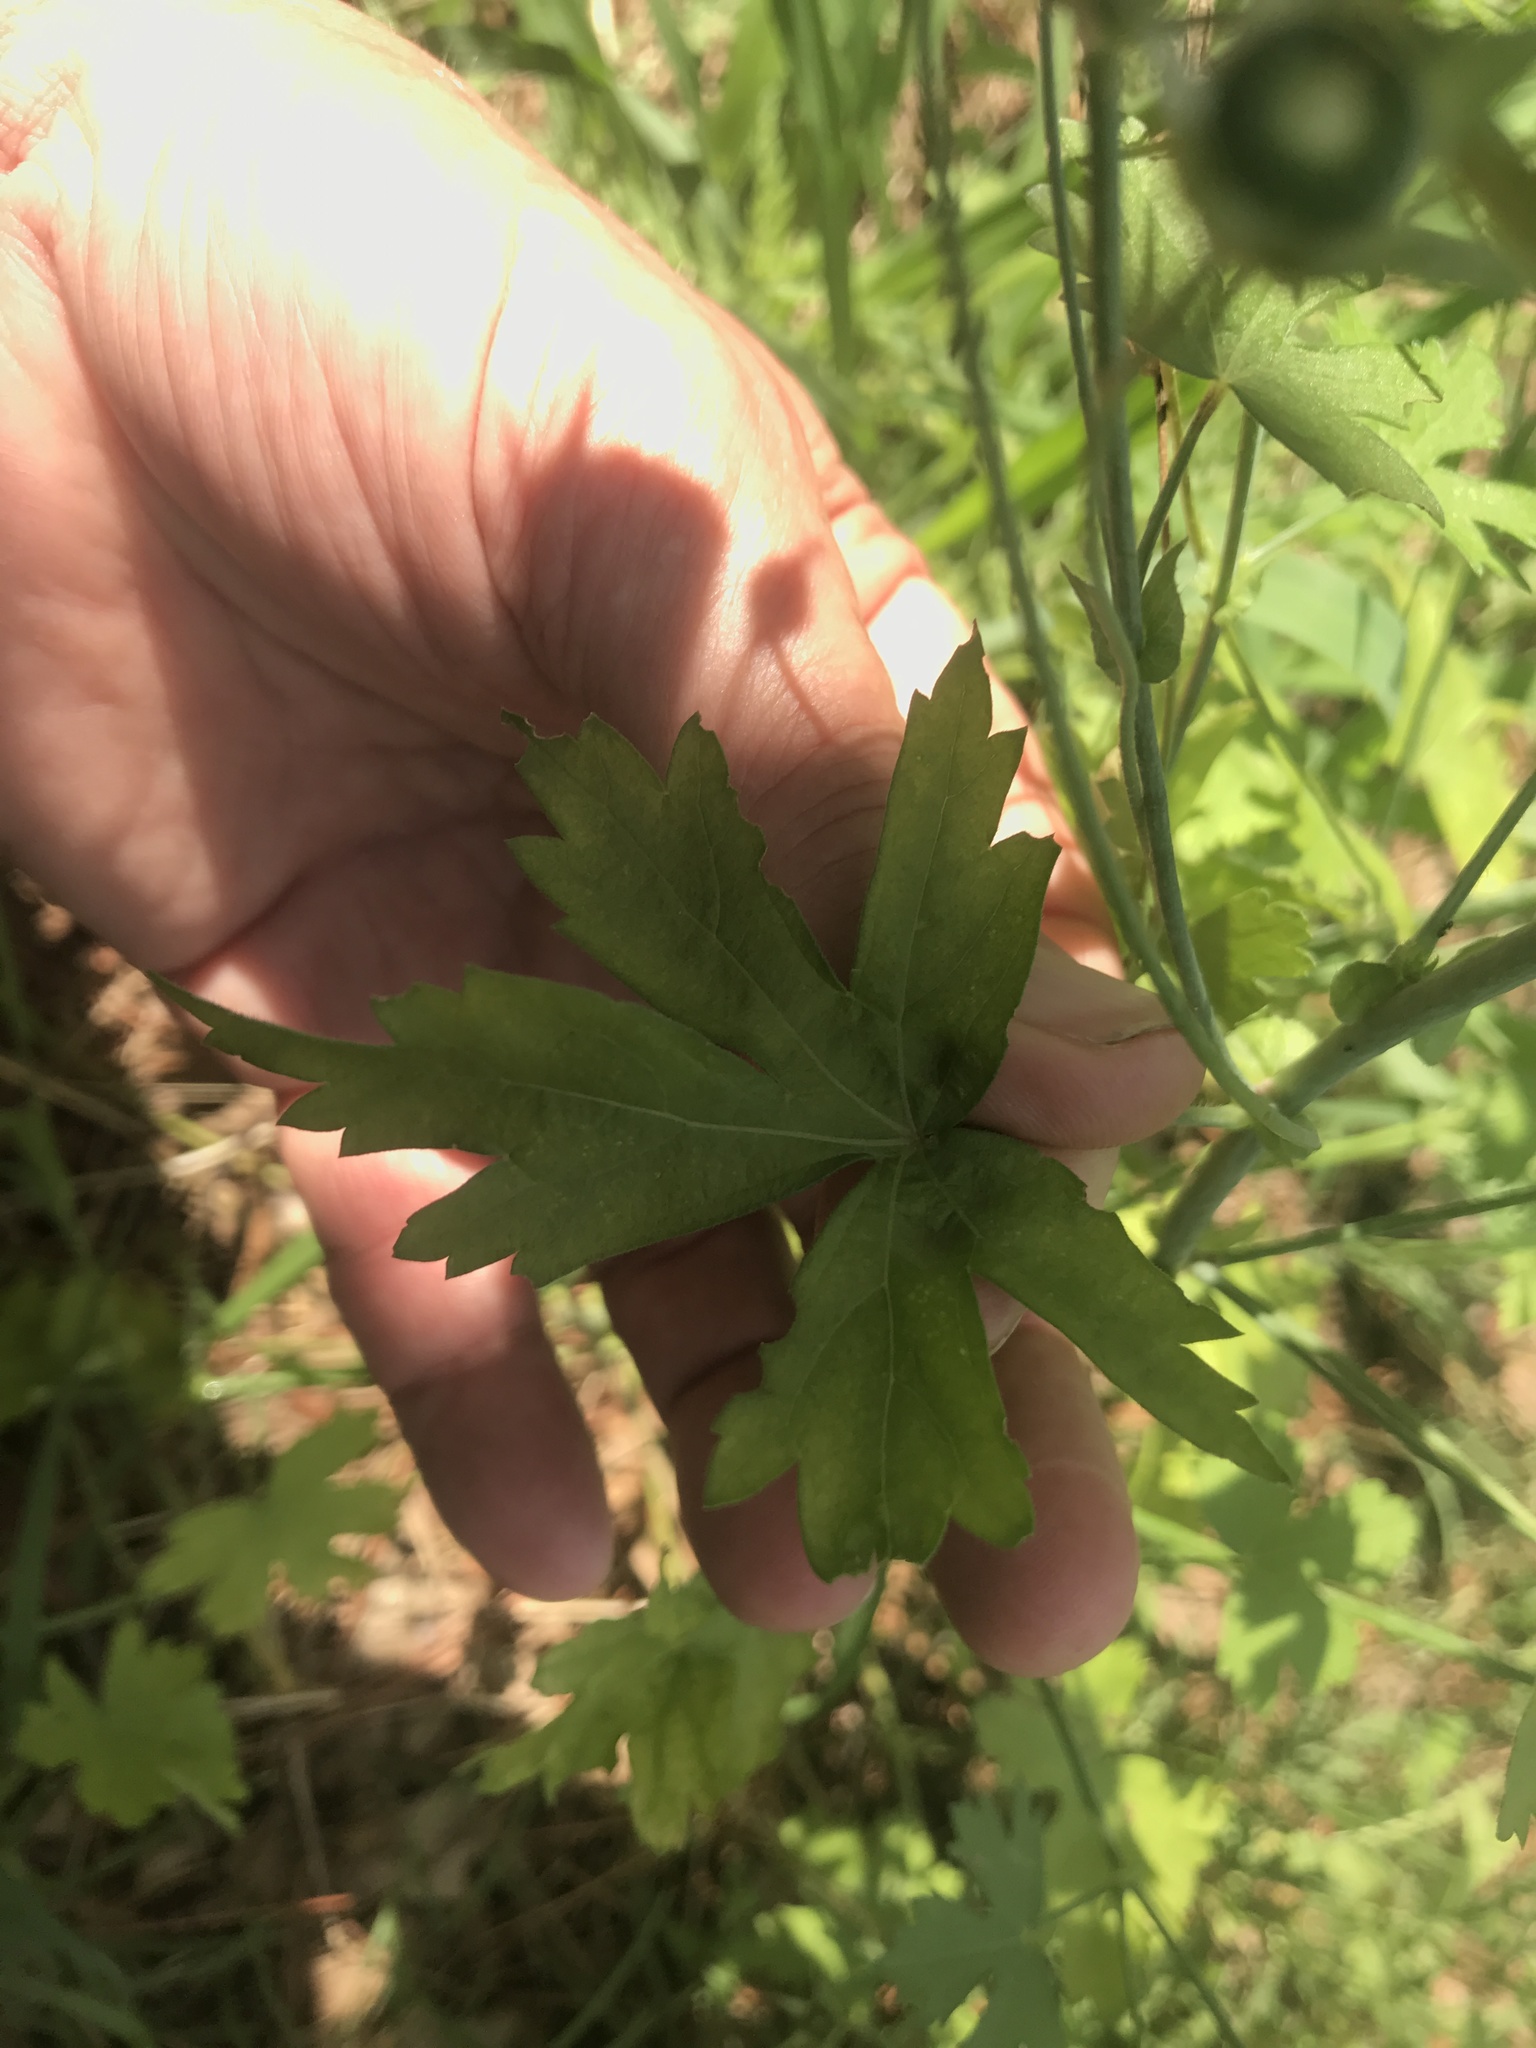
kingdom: Plantae
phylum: Tracheophyta
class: Magnoliopsida
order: Malvales
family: Malvaceae
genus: Callirhoe
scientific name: Callirhoe leiocarpa
